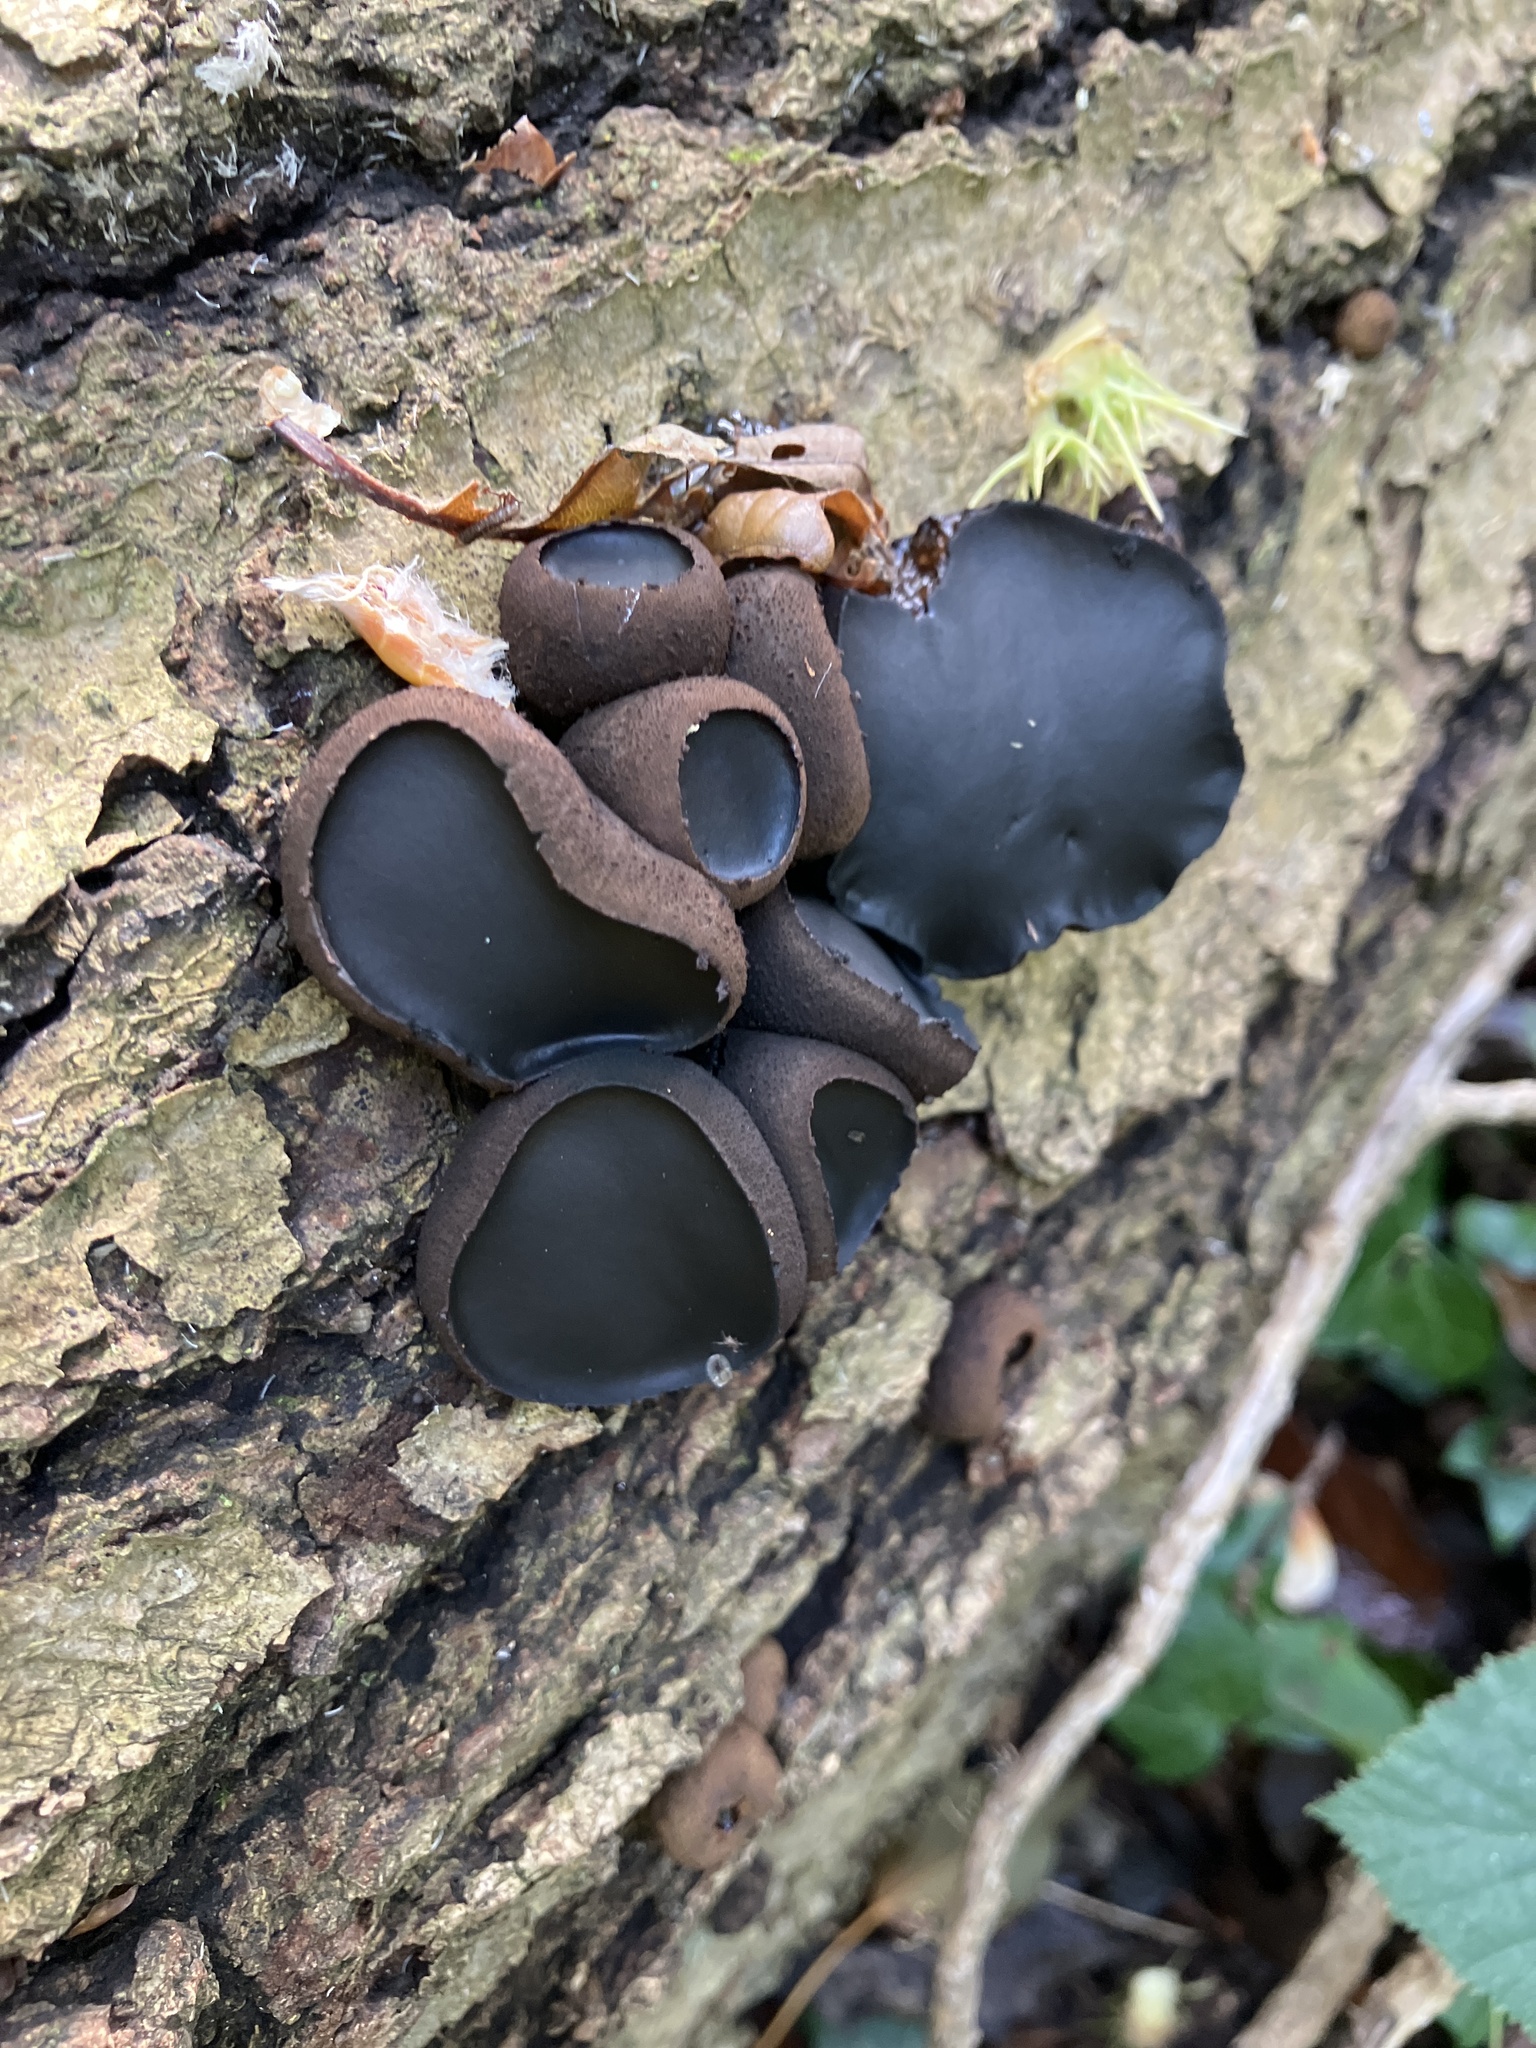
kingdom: Fungi
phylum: Ascomycota
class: Leotiomycetes
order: Phacidiales
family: Phacidiaceae
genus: Bulgaria
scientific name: Bulgaria inquinans
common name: Black bulgar
